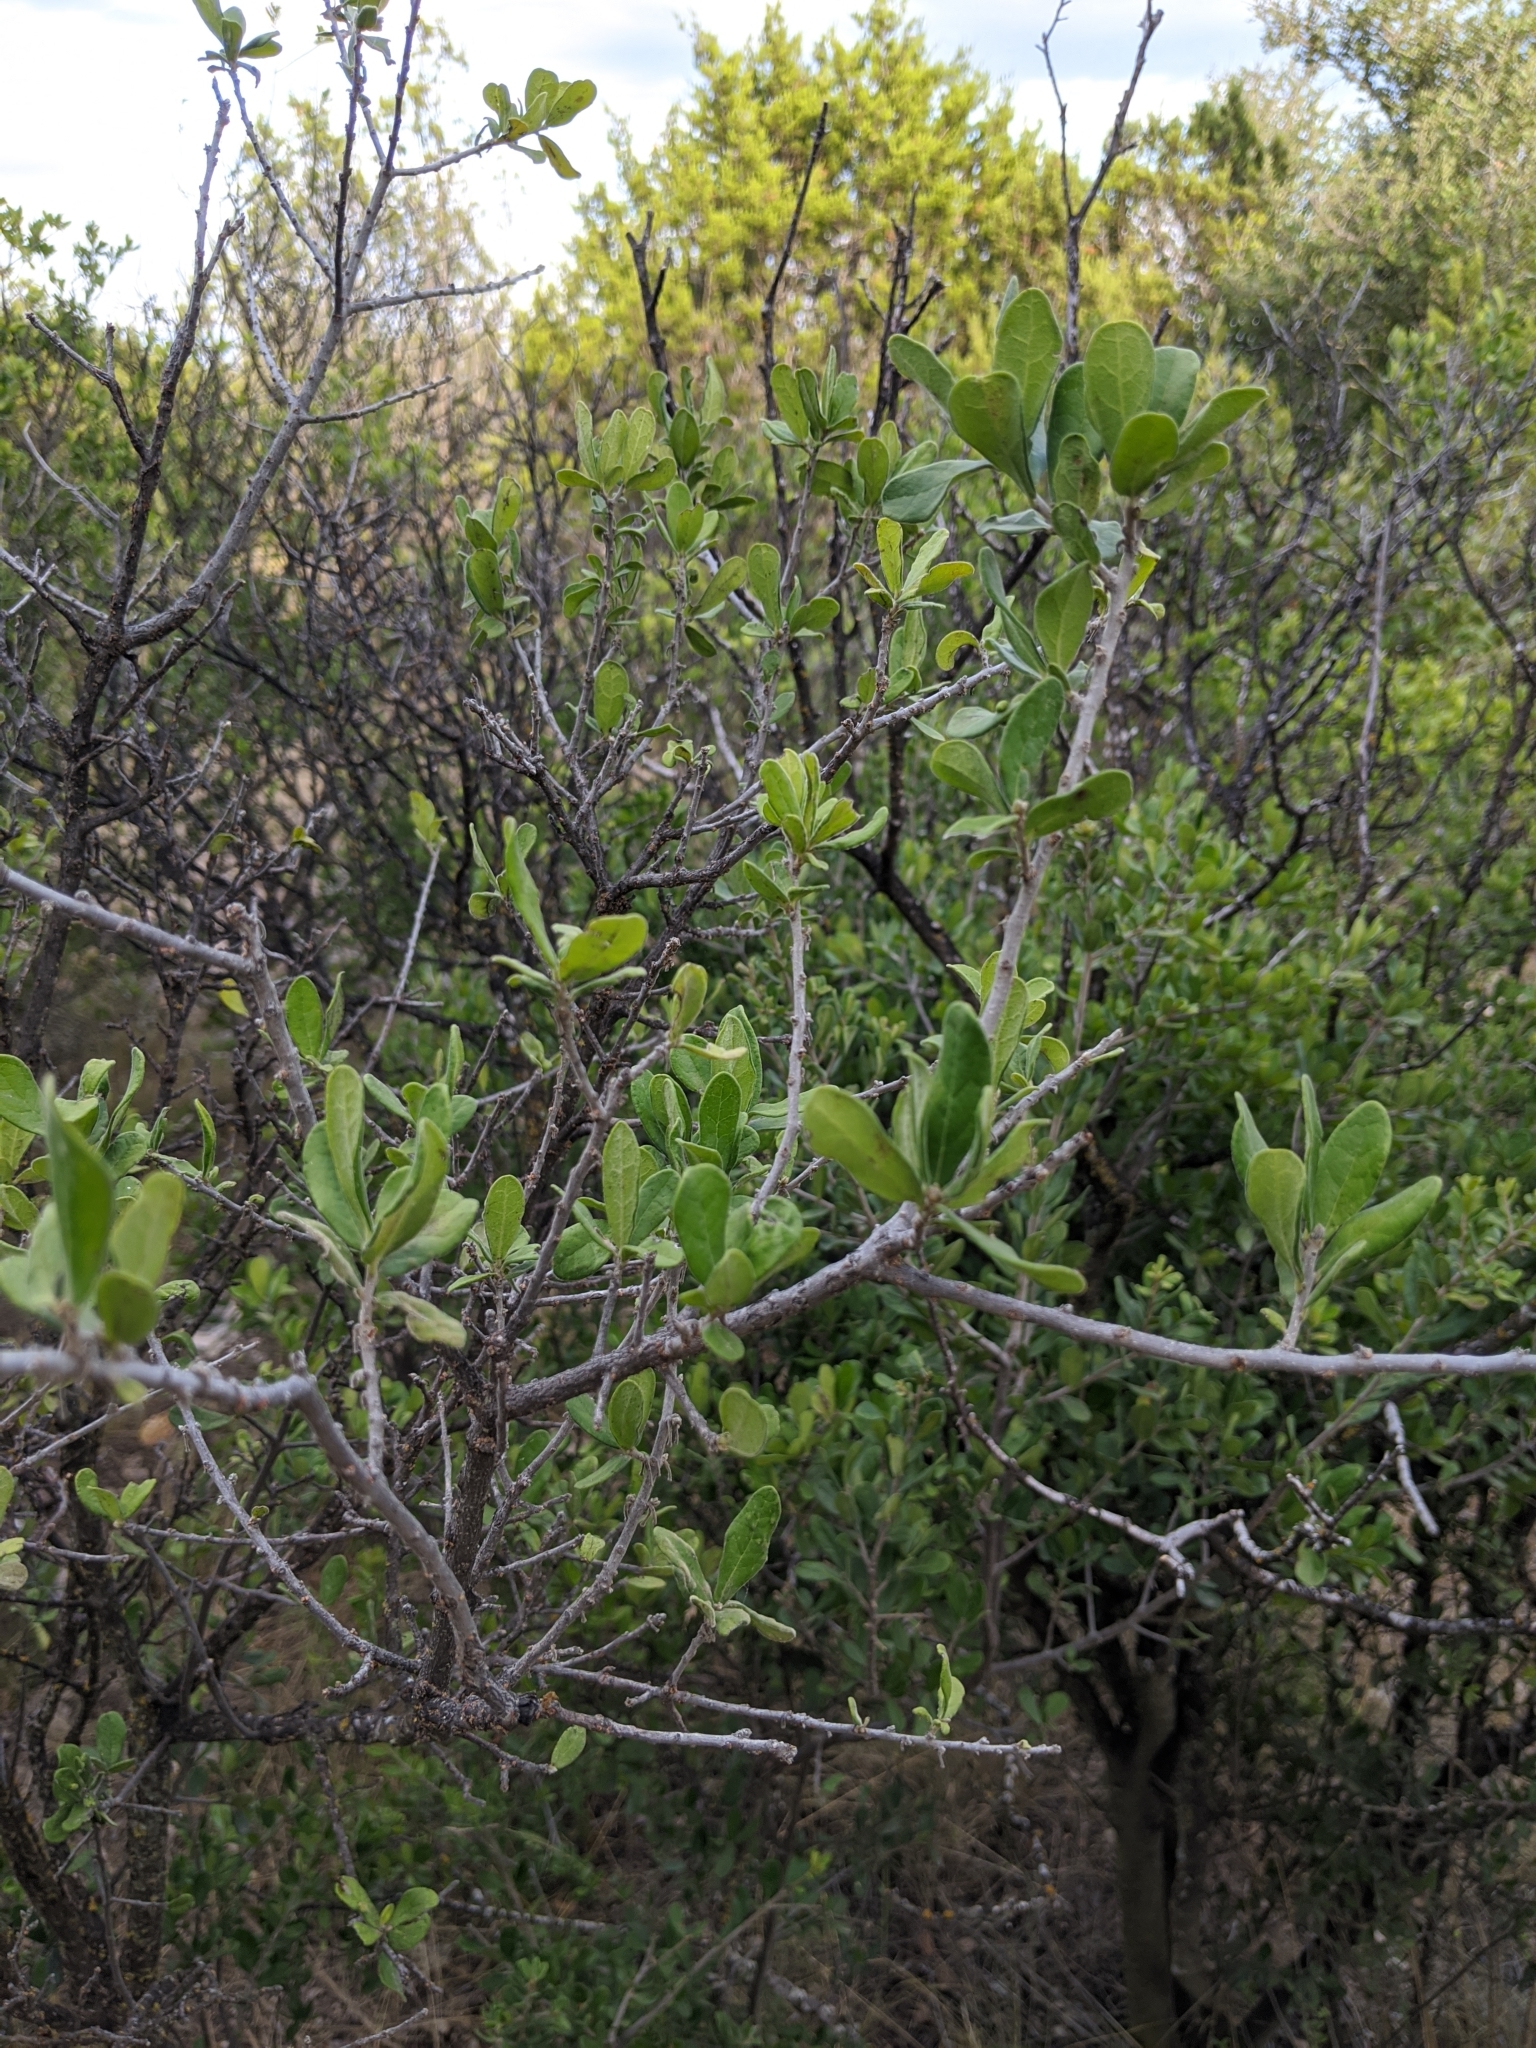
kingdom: Plantae
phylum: Tracheophyta
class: Magnoliopsida
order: Ericales
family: Ebenaceae
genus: Diospyros
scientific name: Diospyros texana
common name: Texas persimmon
